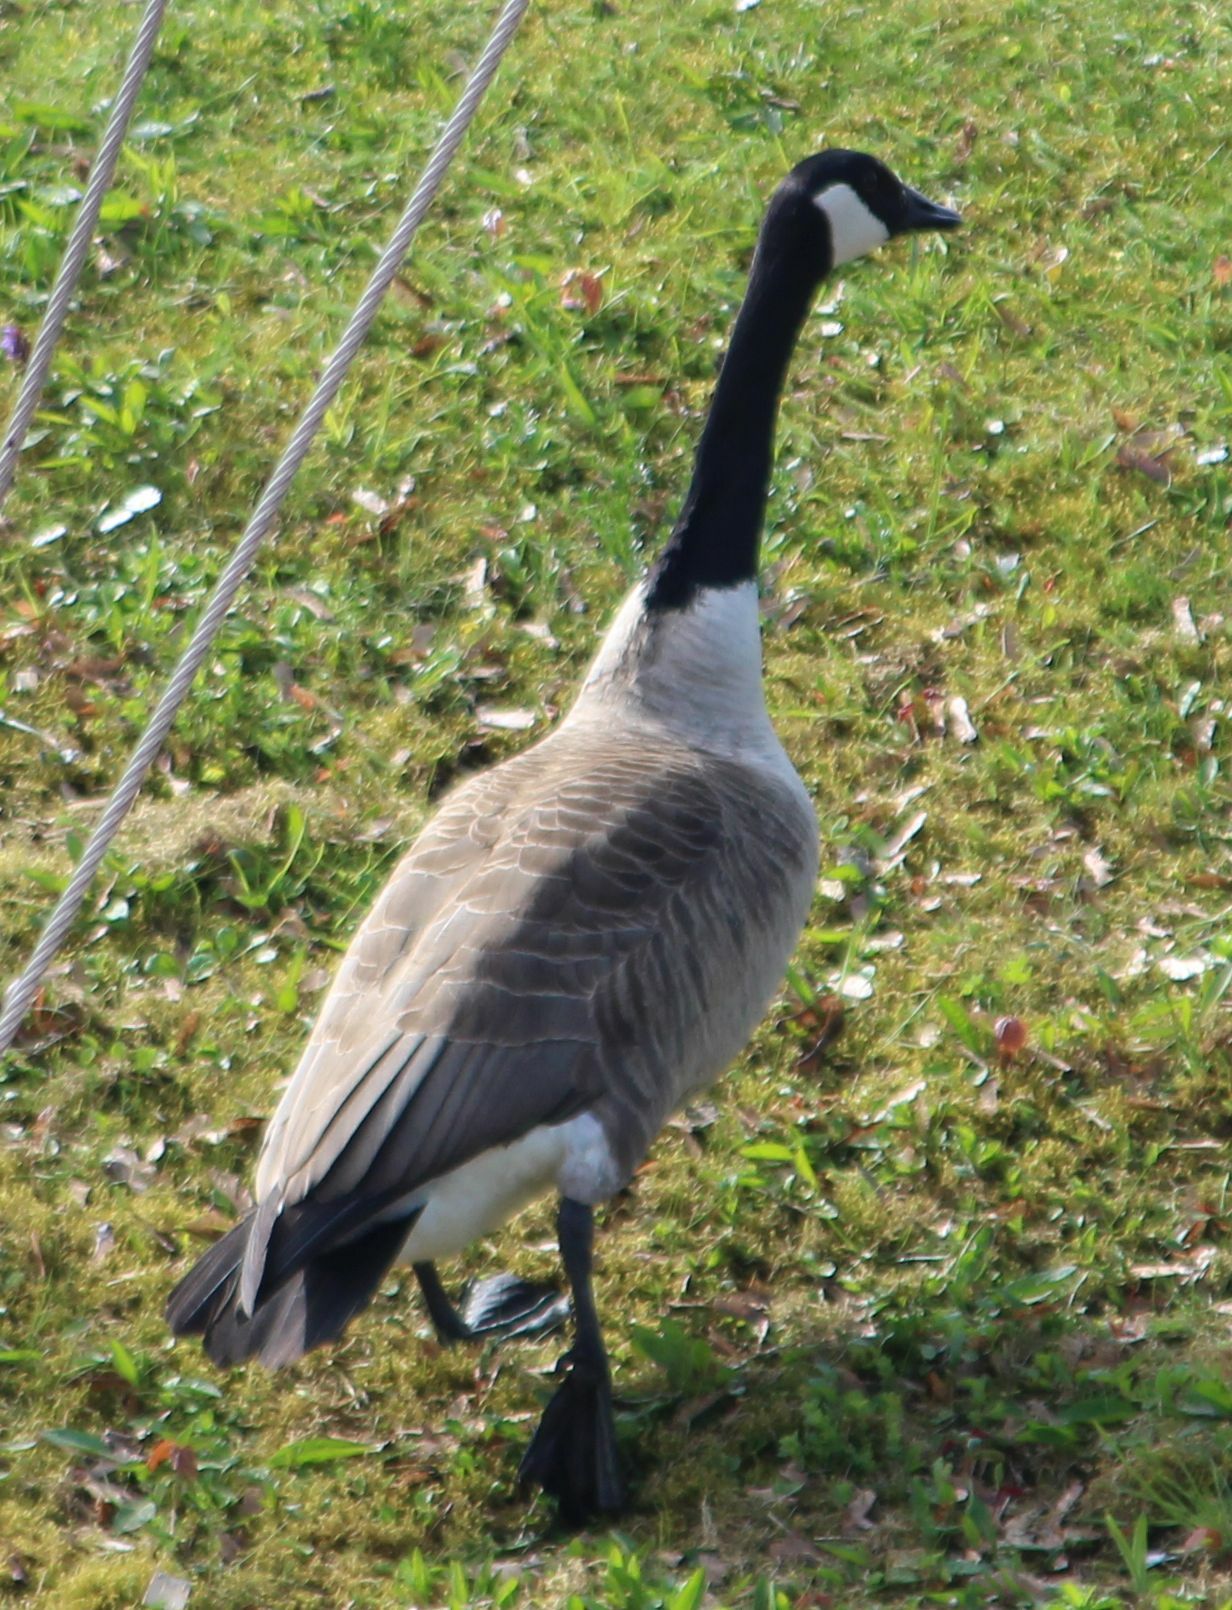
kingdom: Animalia
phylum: Chordata
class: Aves
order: Anseriformes
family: Anatidae
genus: Branta
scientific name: Branta canadensis
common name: Canada goose
